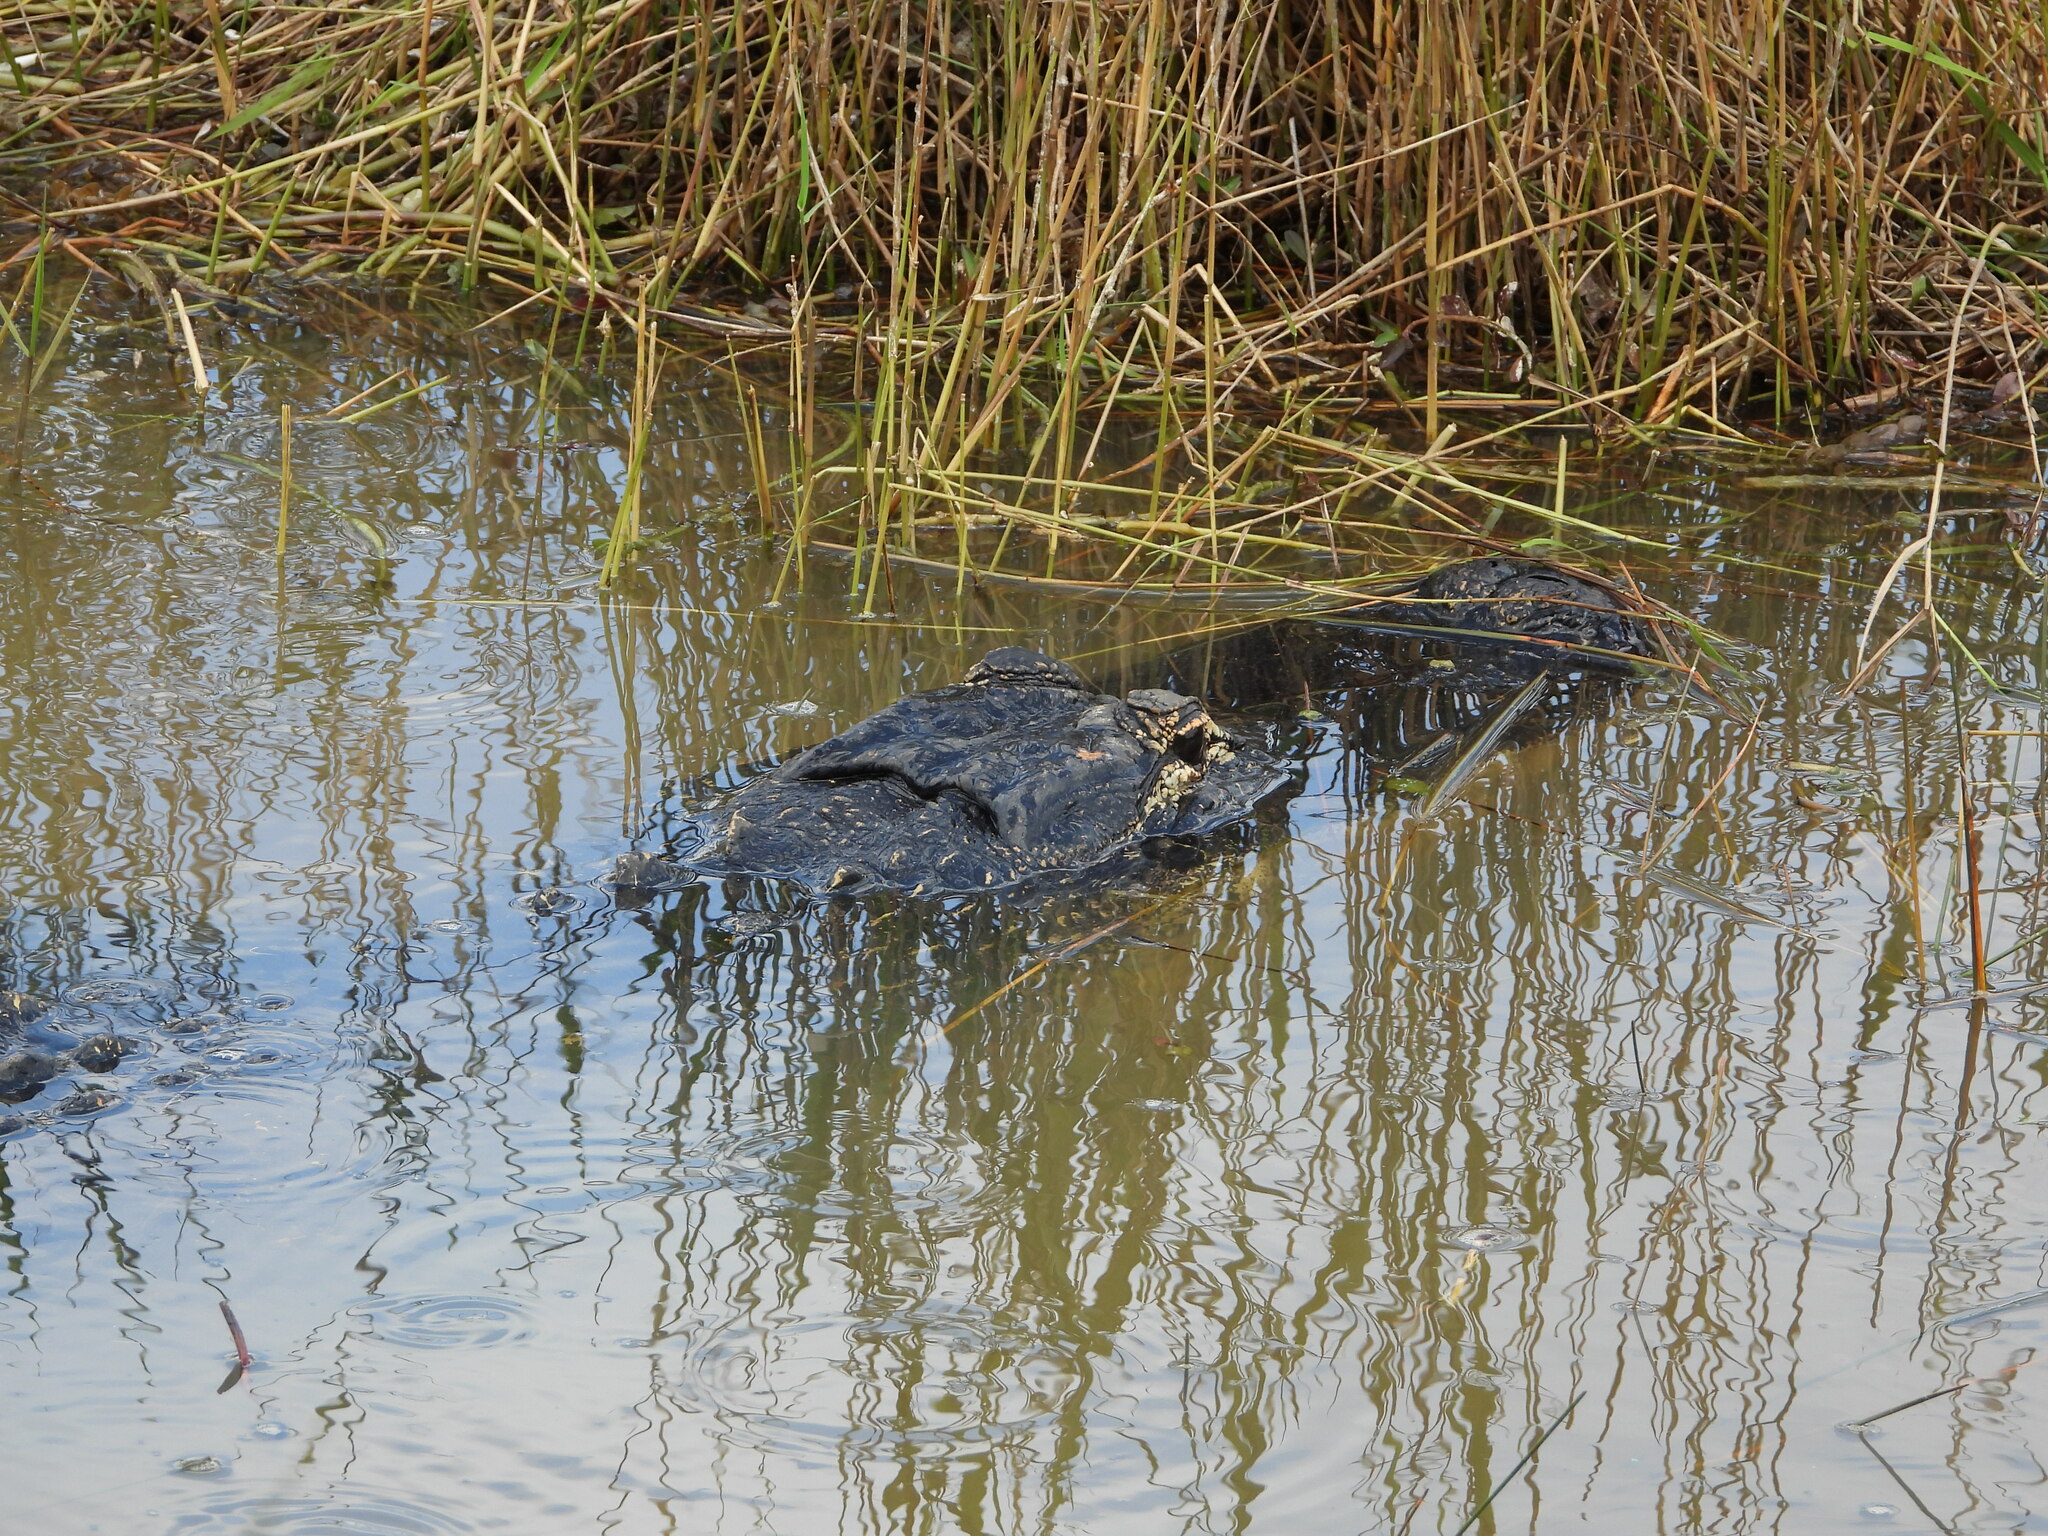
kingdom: Animalia
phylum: Chordata
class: Crocodylia
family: Alligatoridae
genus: Alligator
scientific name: Alligator mississippiensis
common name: American alligator
